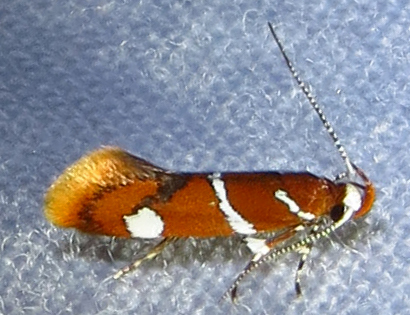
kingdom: Animalia
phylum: Arthropoda
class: Insecta
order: Lepidoptera
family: Oecophoridae
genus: Promalactis
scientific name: Promalactis suzukiella
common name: Moth
